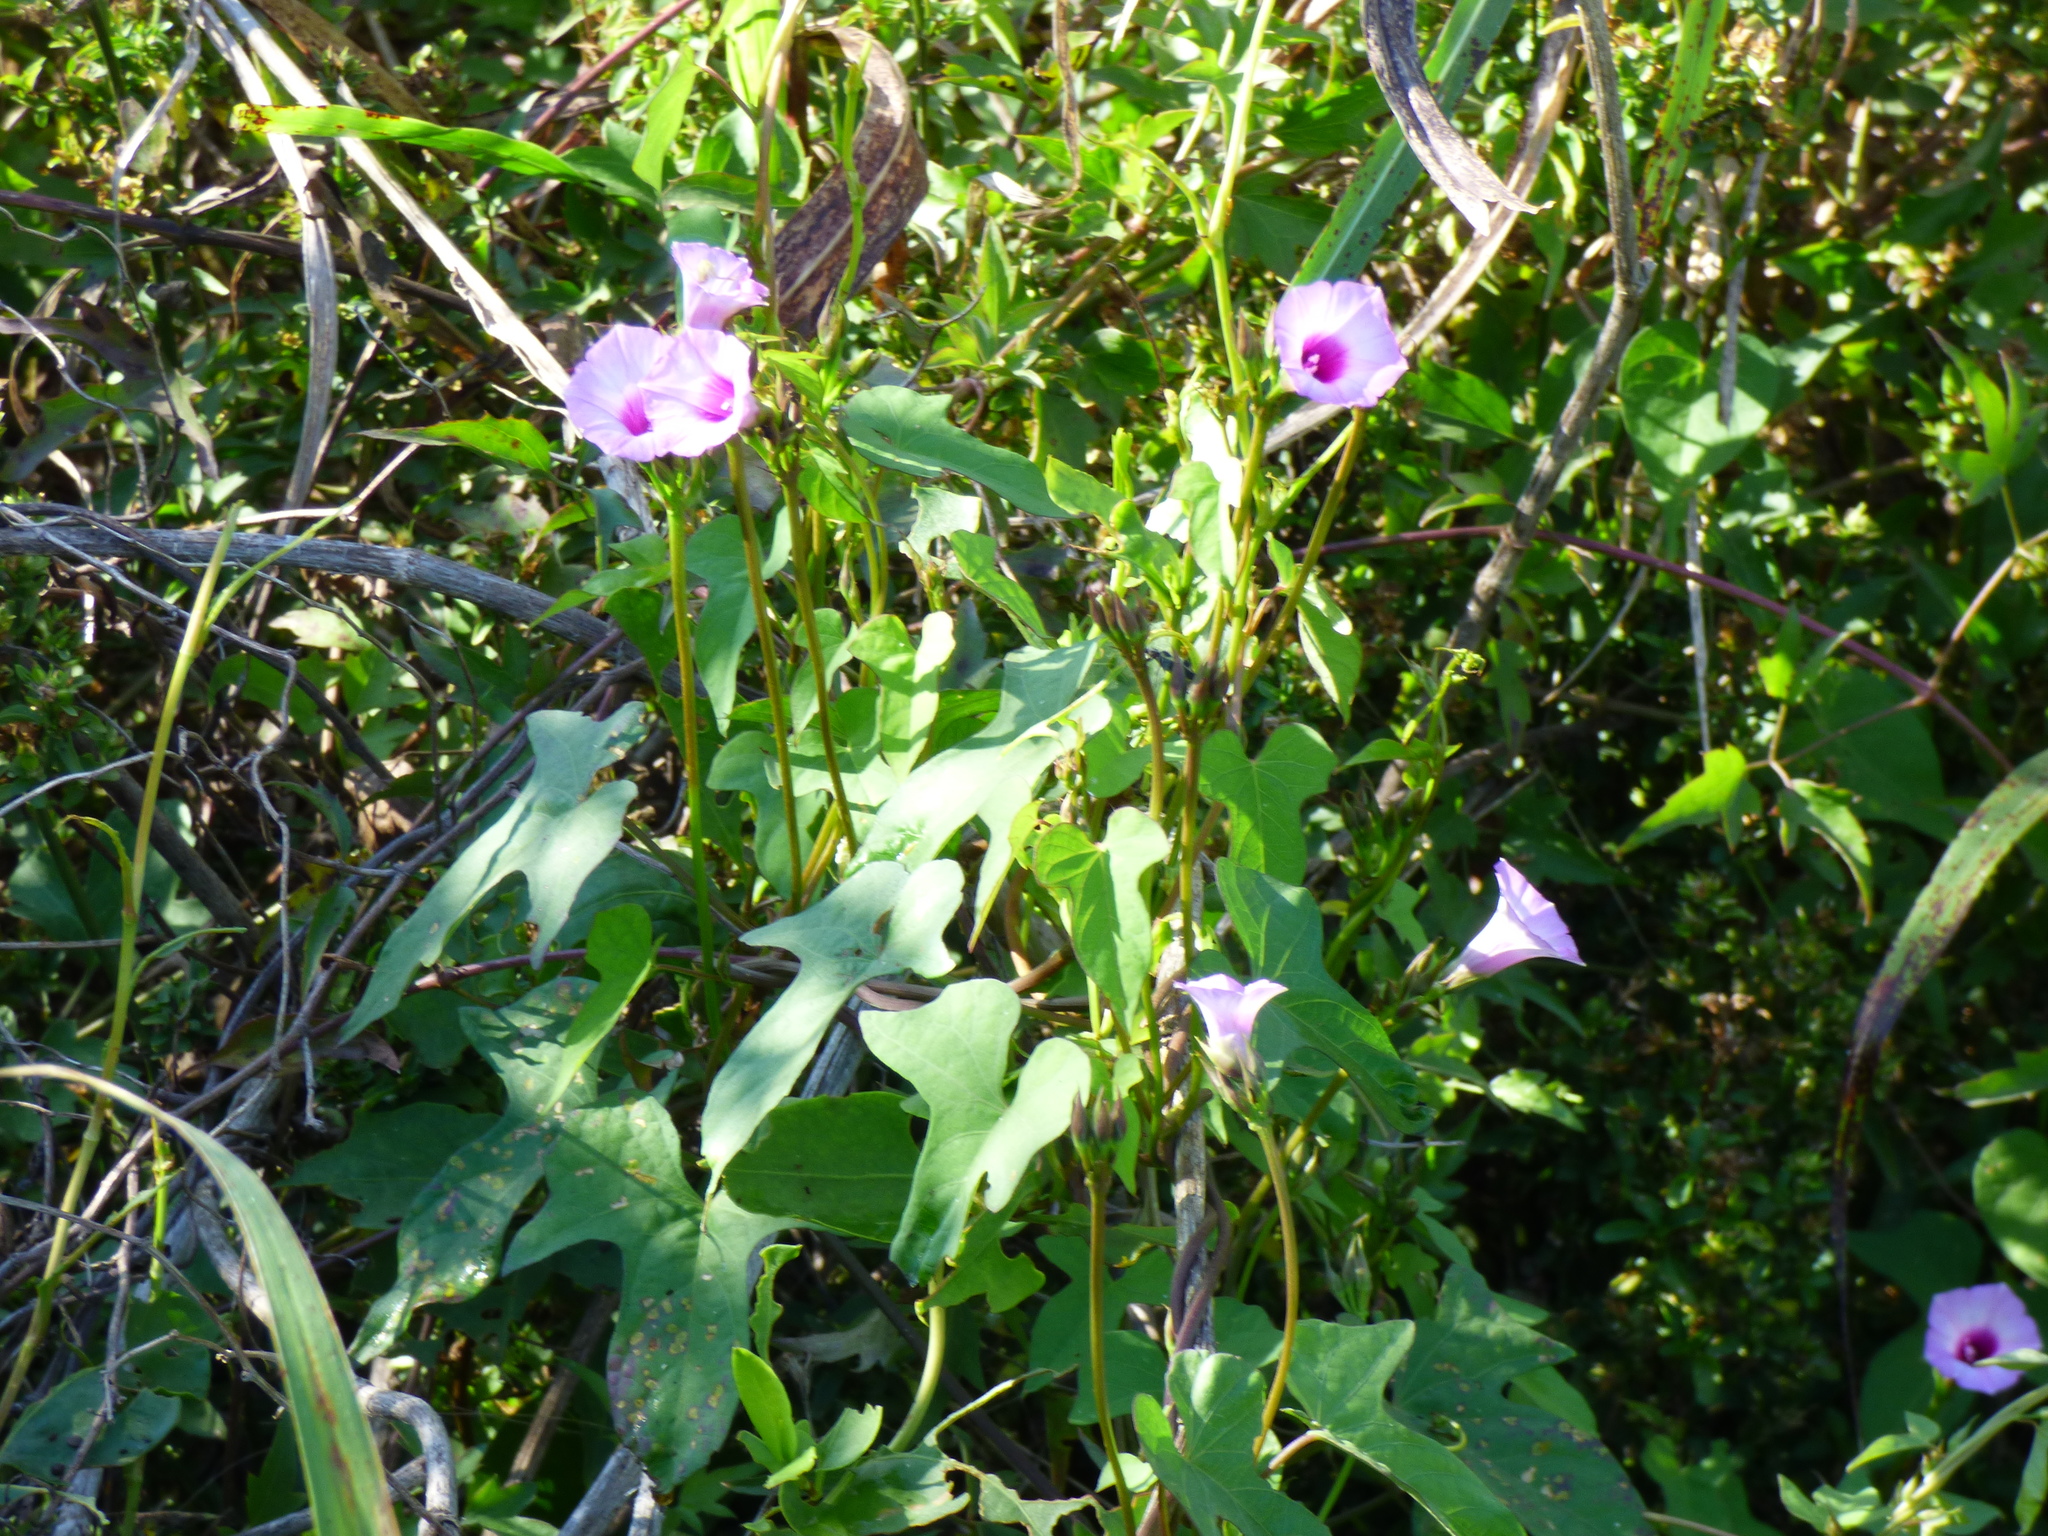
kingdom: Plantae
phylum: Tracheophyta
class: Magnoliopsida
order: Solanales
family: Convolvulaceae
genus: Ipomoea
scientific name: Ipomoea grandifolia
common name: Aiea morning glory
